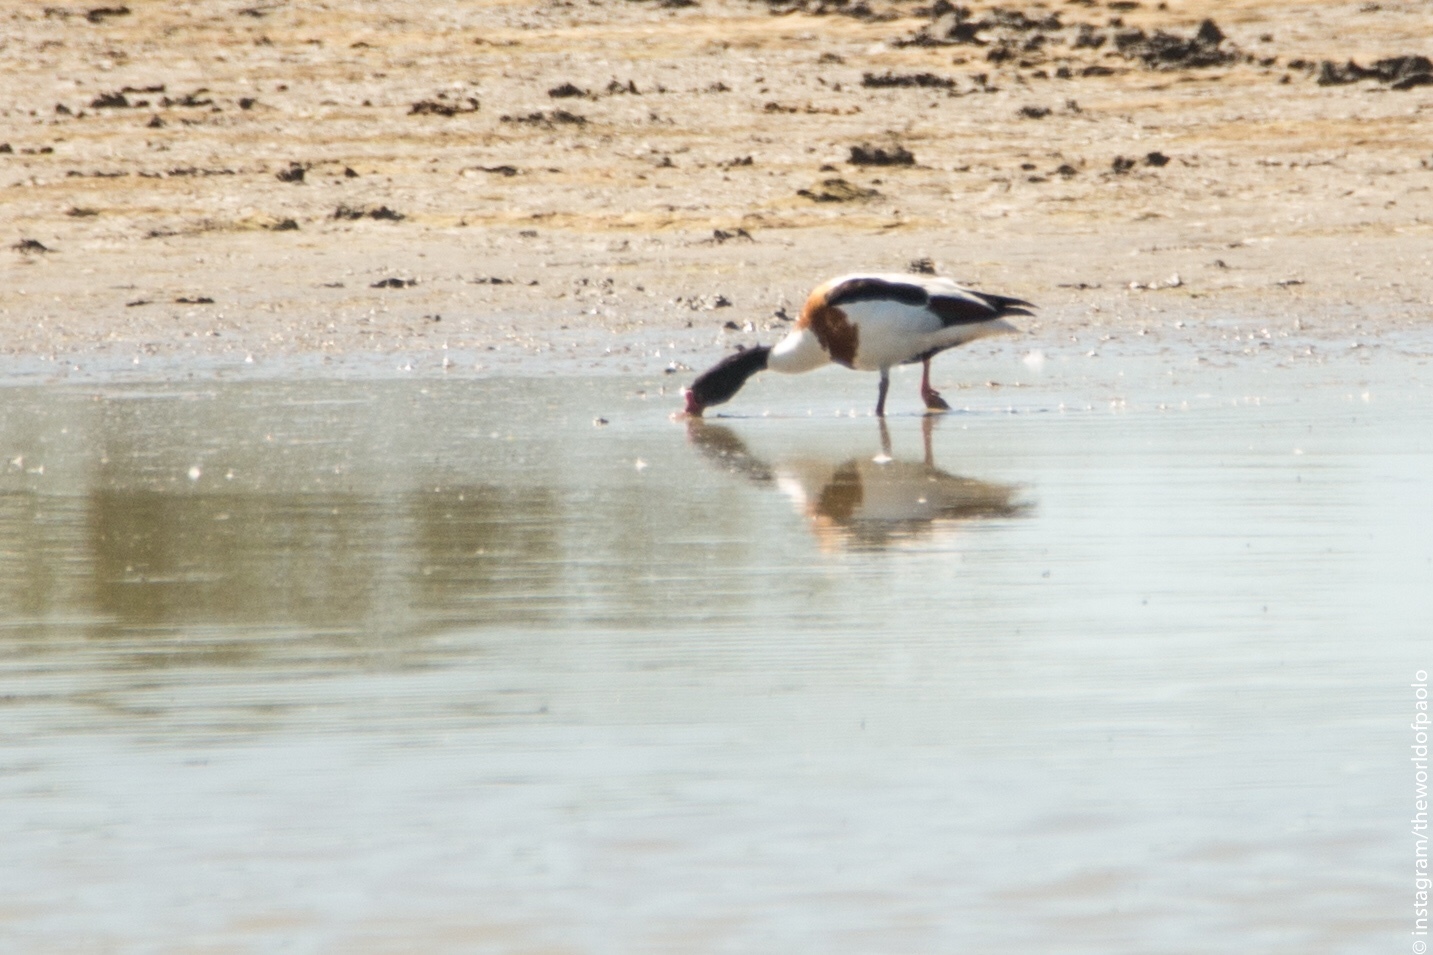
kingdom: Animalia
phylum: Chordata
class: Aves
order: Anseriformes
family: Anatidae
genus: Tadorna
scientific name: Tadorna tadorna
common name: Common shelduck
